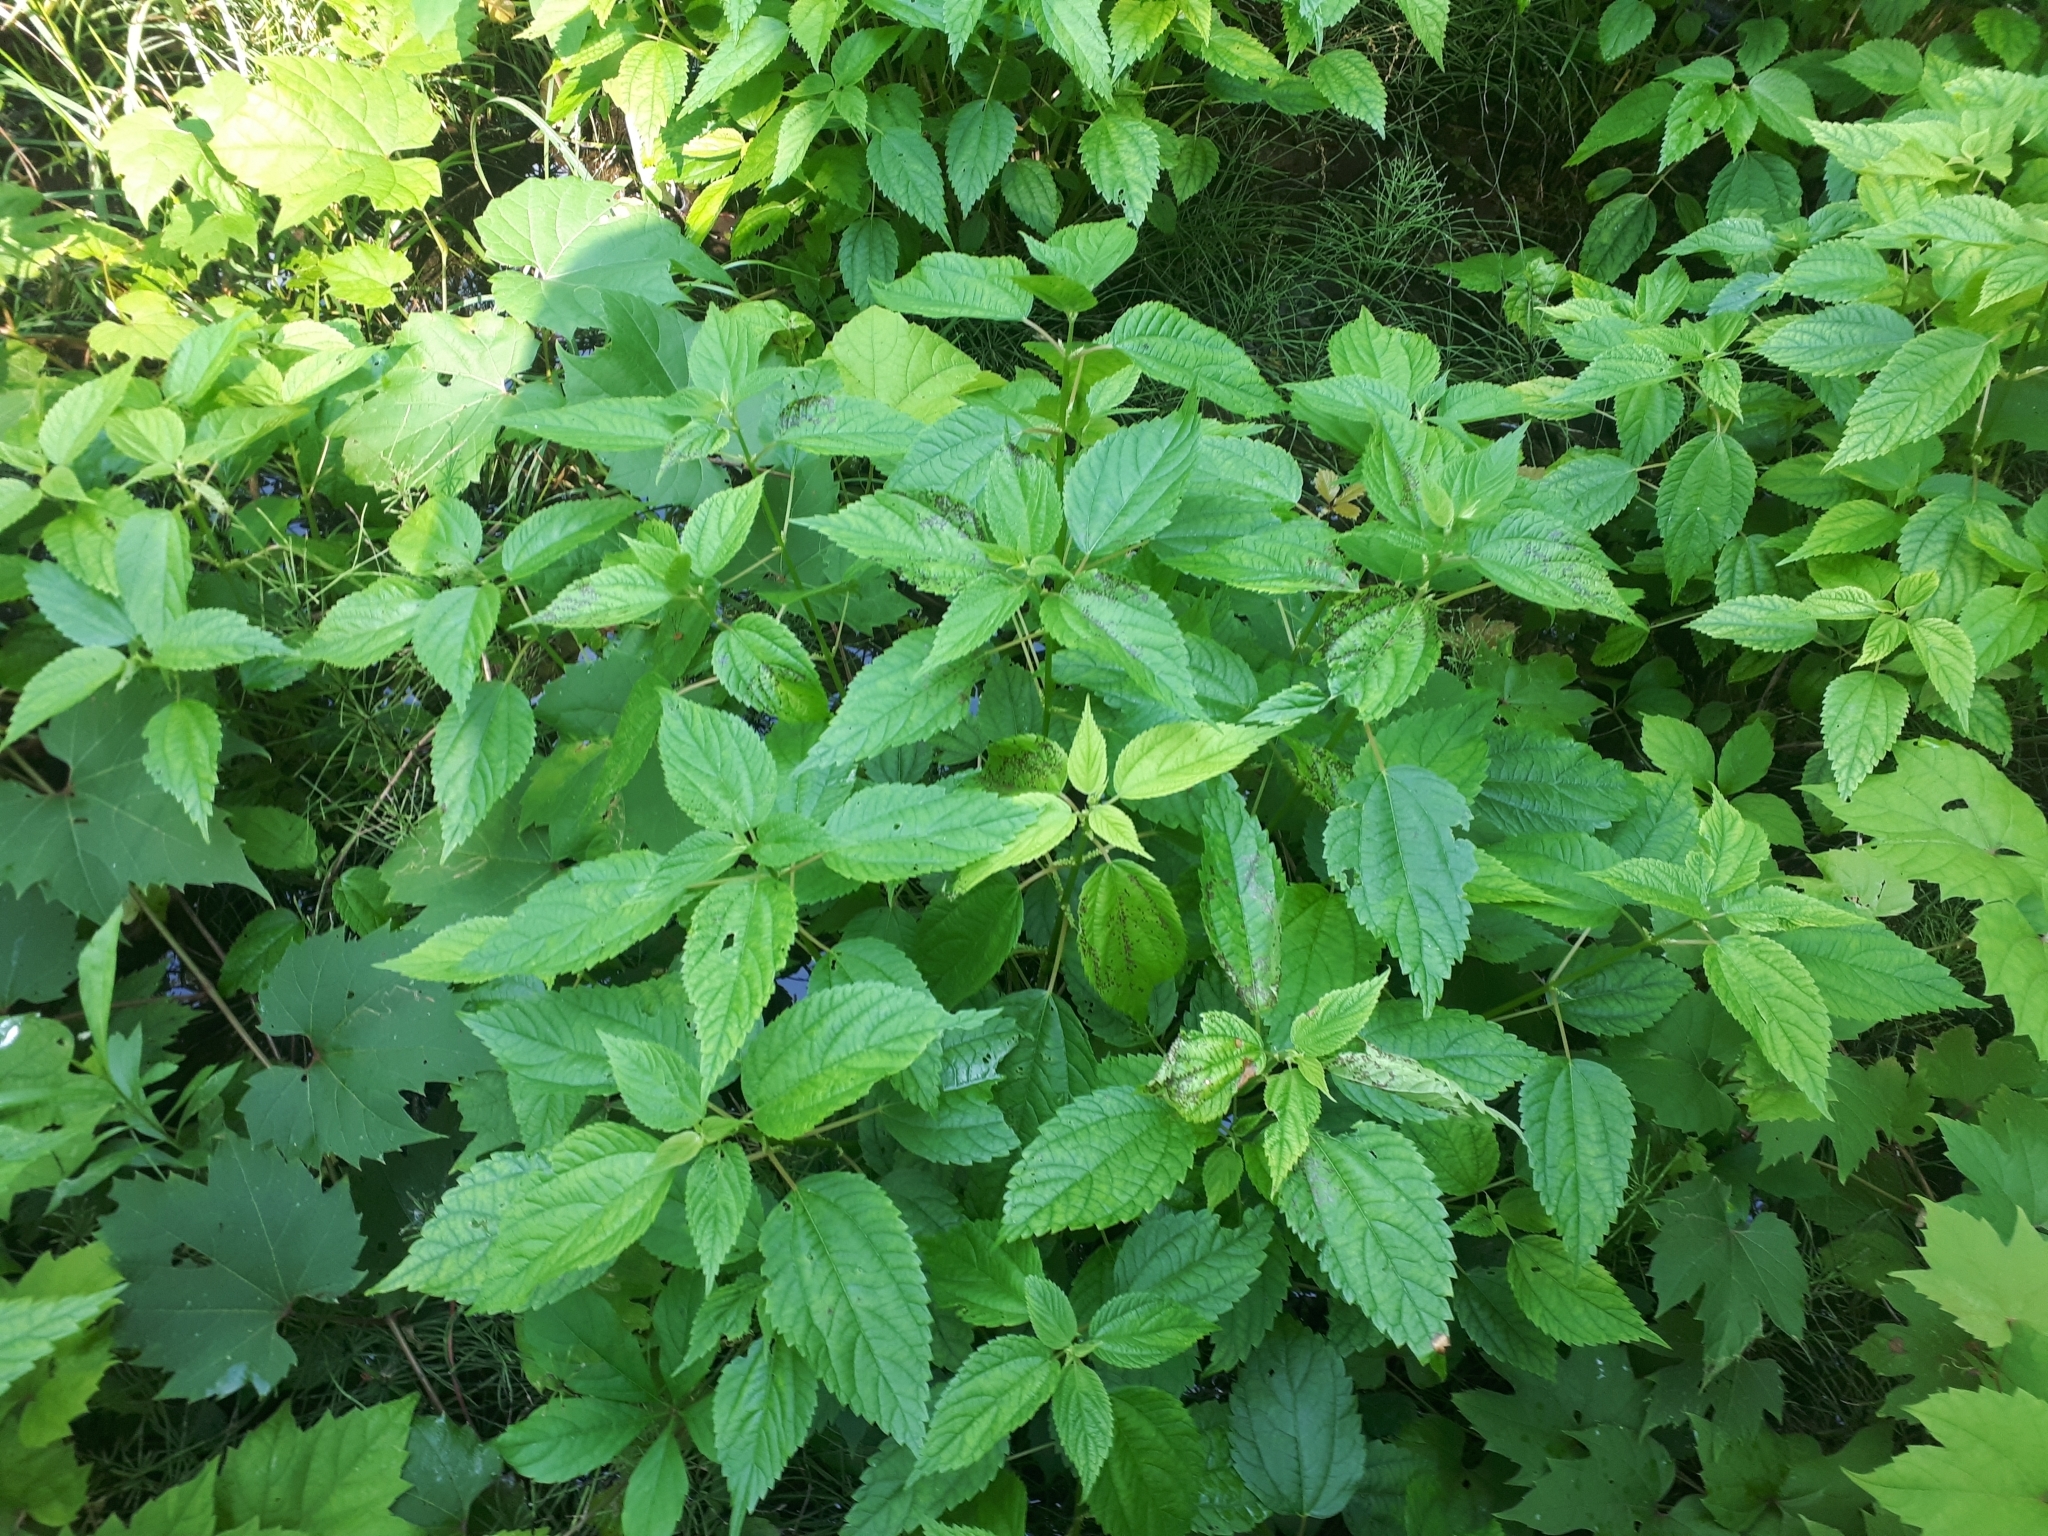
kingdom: Plantae
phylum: Tracheophyta
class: Magnoliopsida
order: Rosales
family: Urticaceae
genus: Boehmeria
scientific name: Boehmeria cylindrica
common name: Bog-hemp
